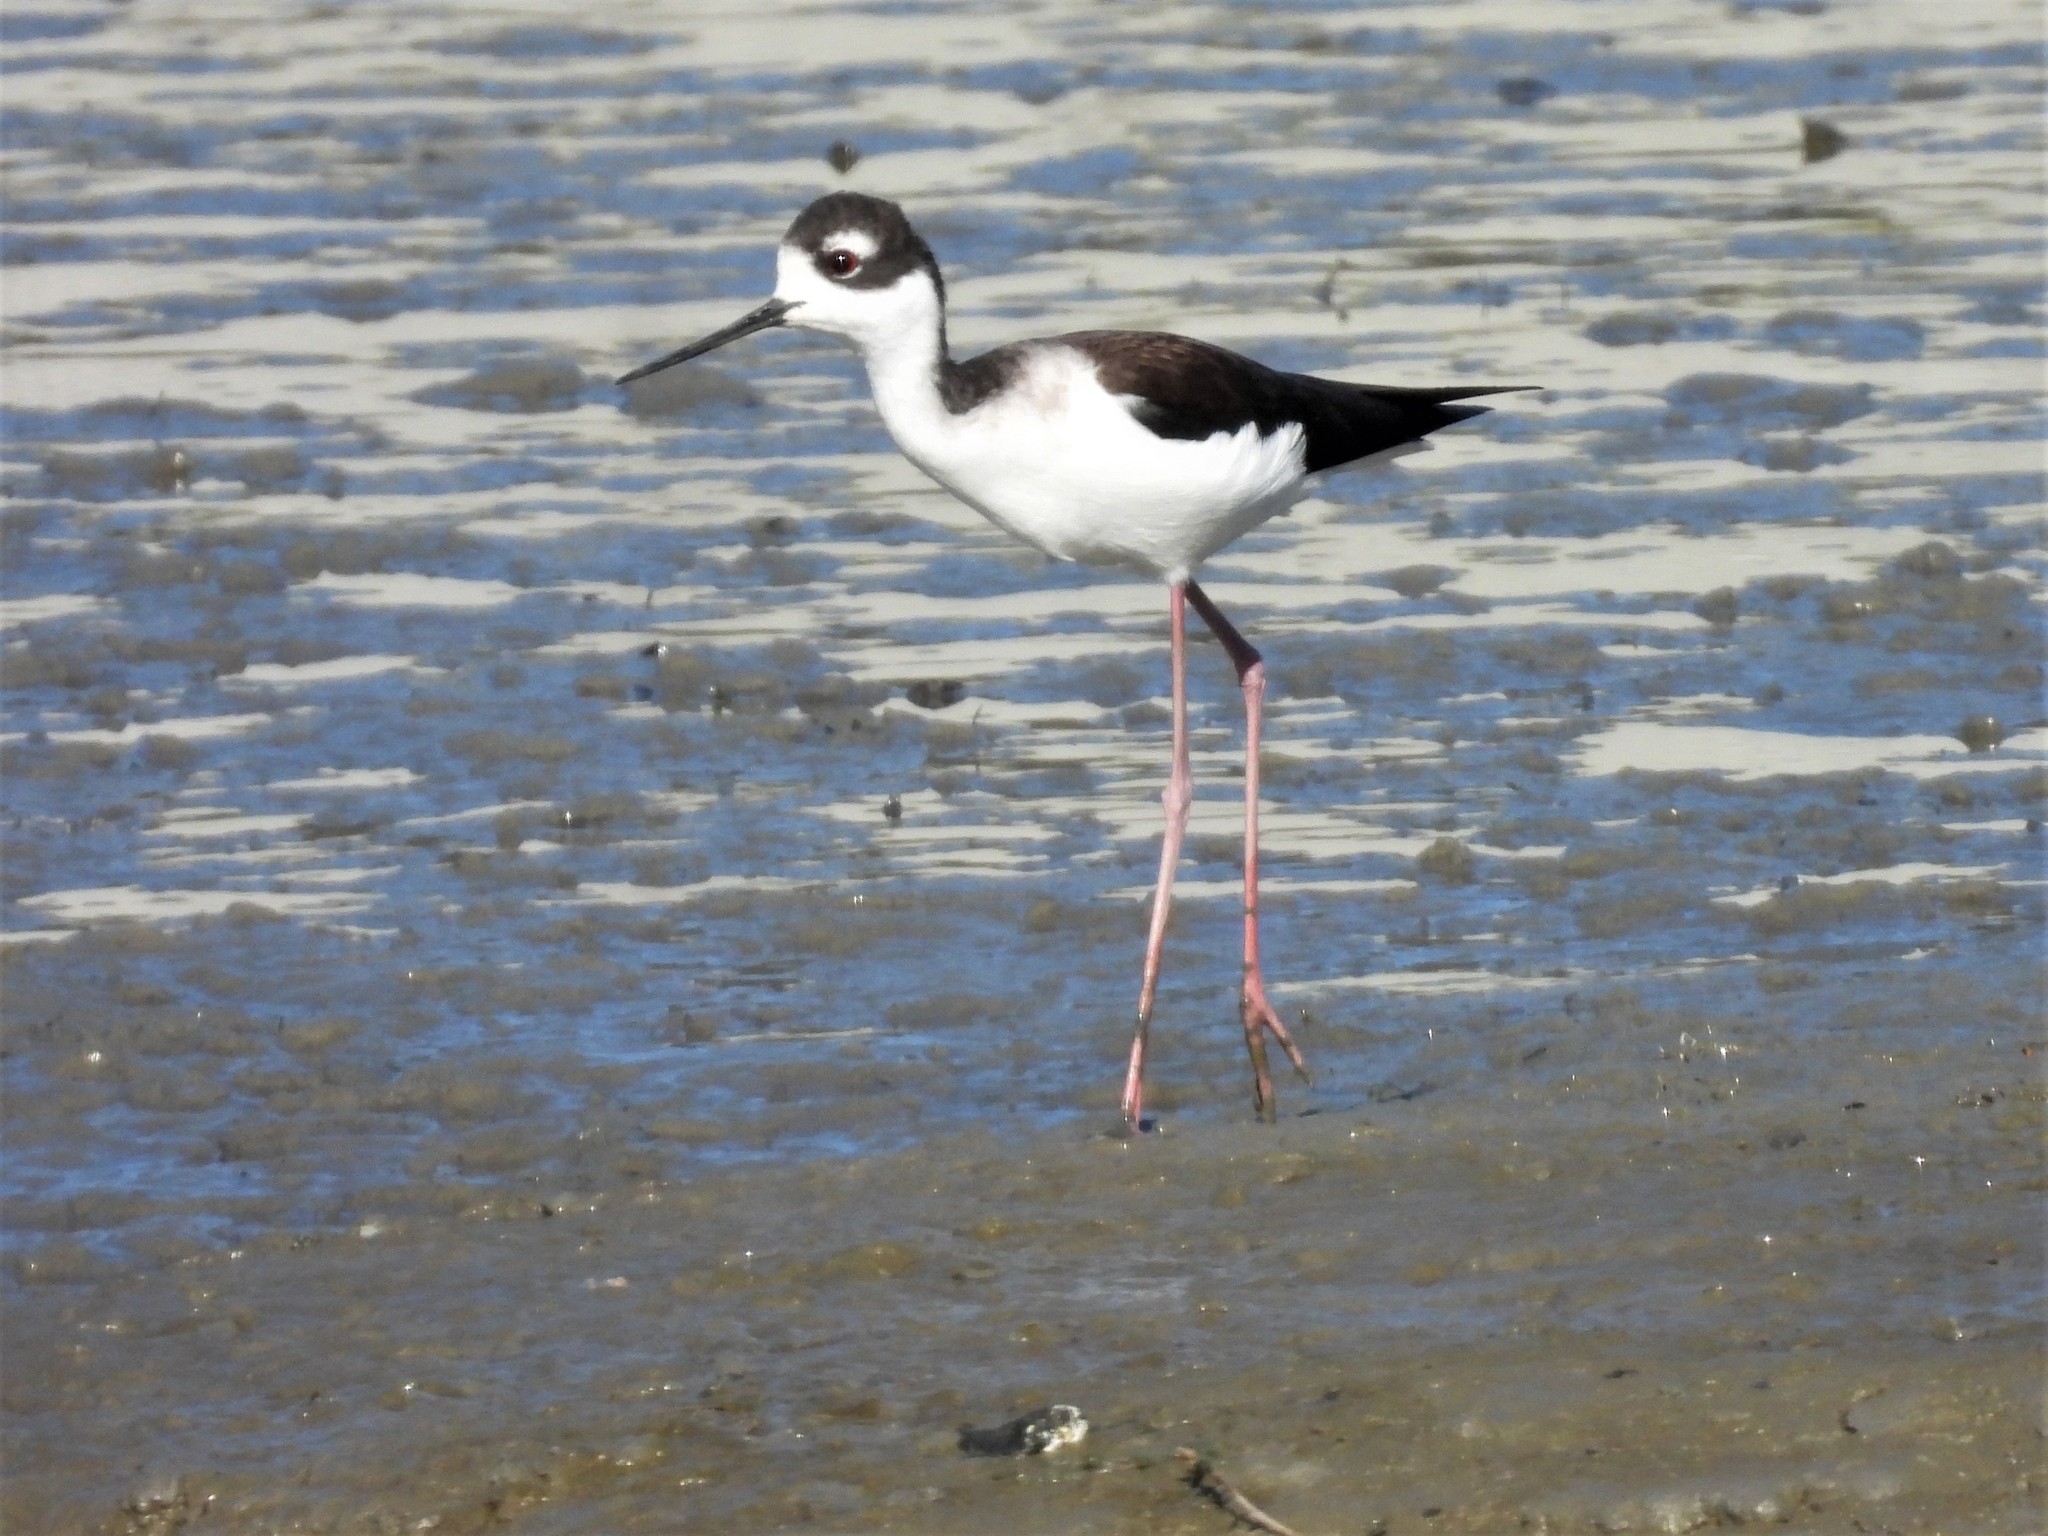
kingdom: Animalia
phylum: Chordata
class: Aves
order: Charadriiformes
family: Recurvirostridae
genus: Himantopus
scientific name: Himantopus mexicanus
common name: Black-necked stilt
